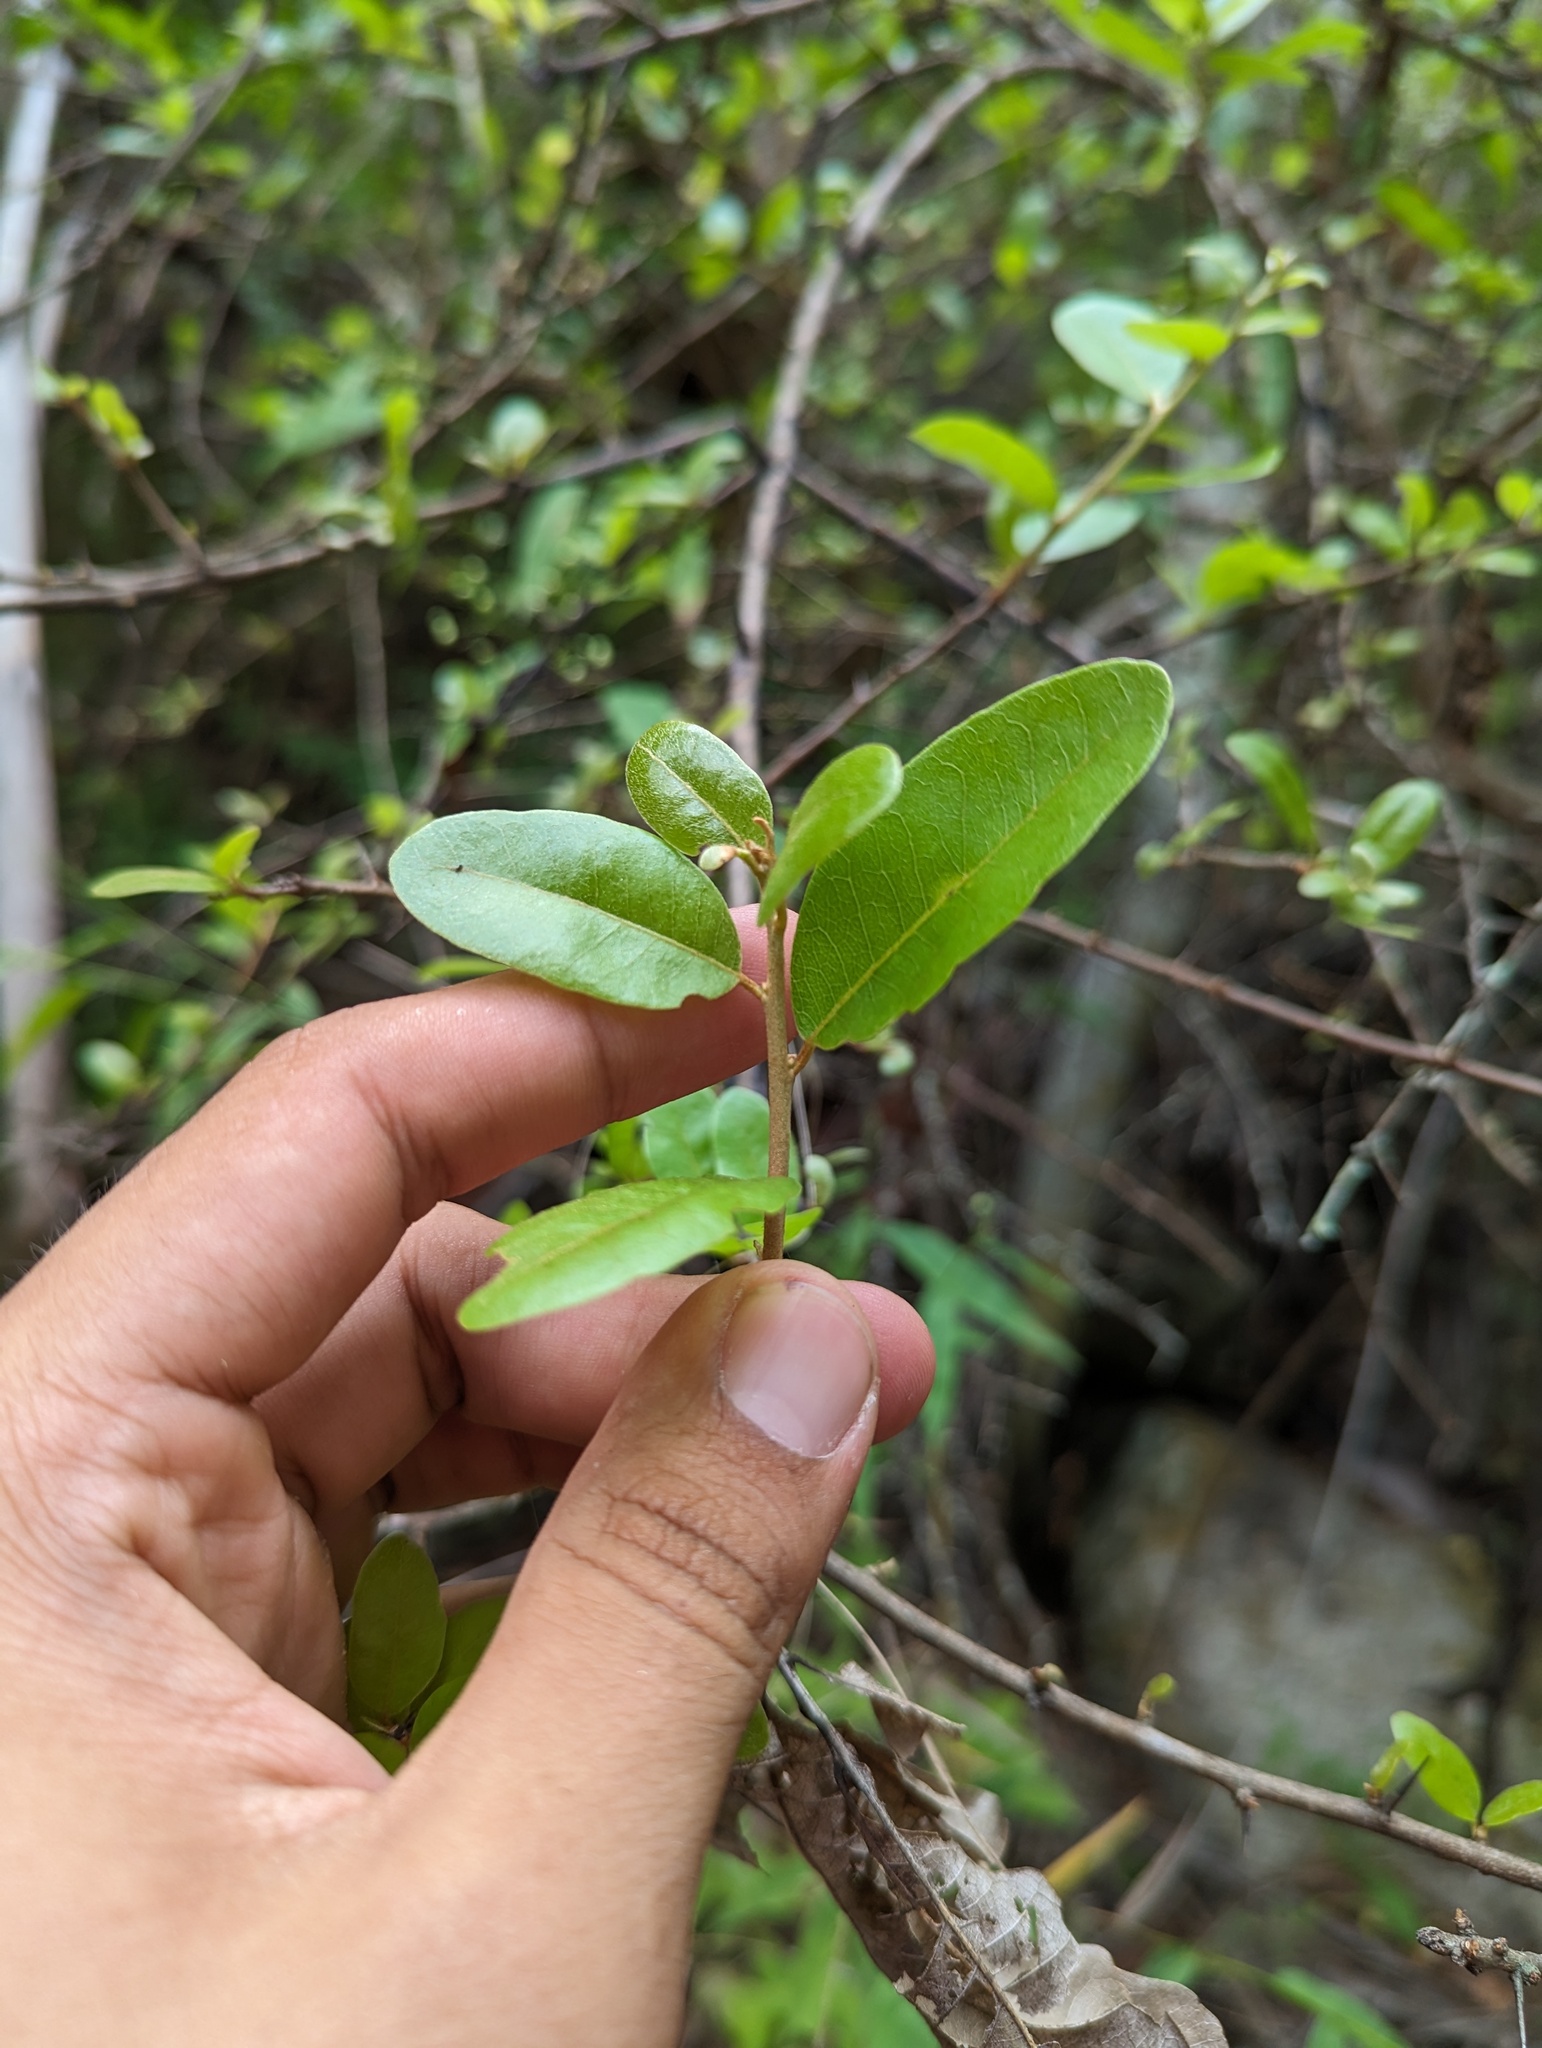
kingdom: Plantae
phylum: Tracheophyta
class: Magnoliopsida
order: Ericales
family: Sapotaceae
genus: Sideroxylon
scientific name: Sideroxylon peninsulare
